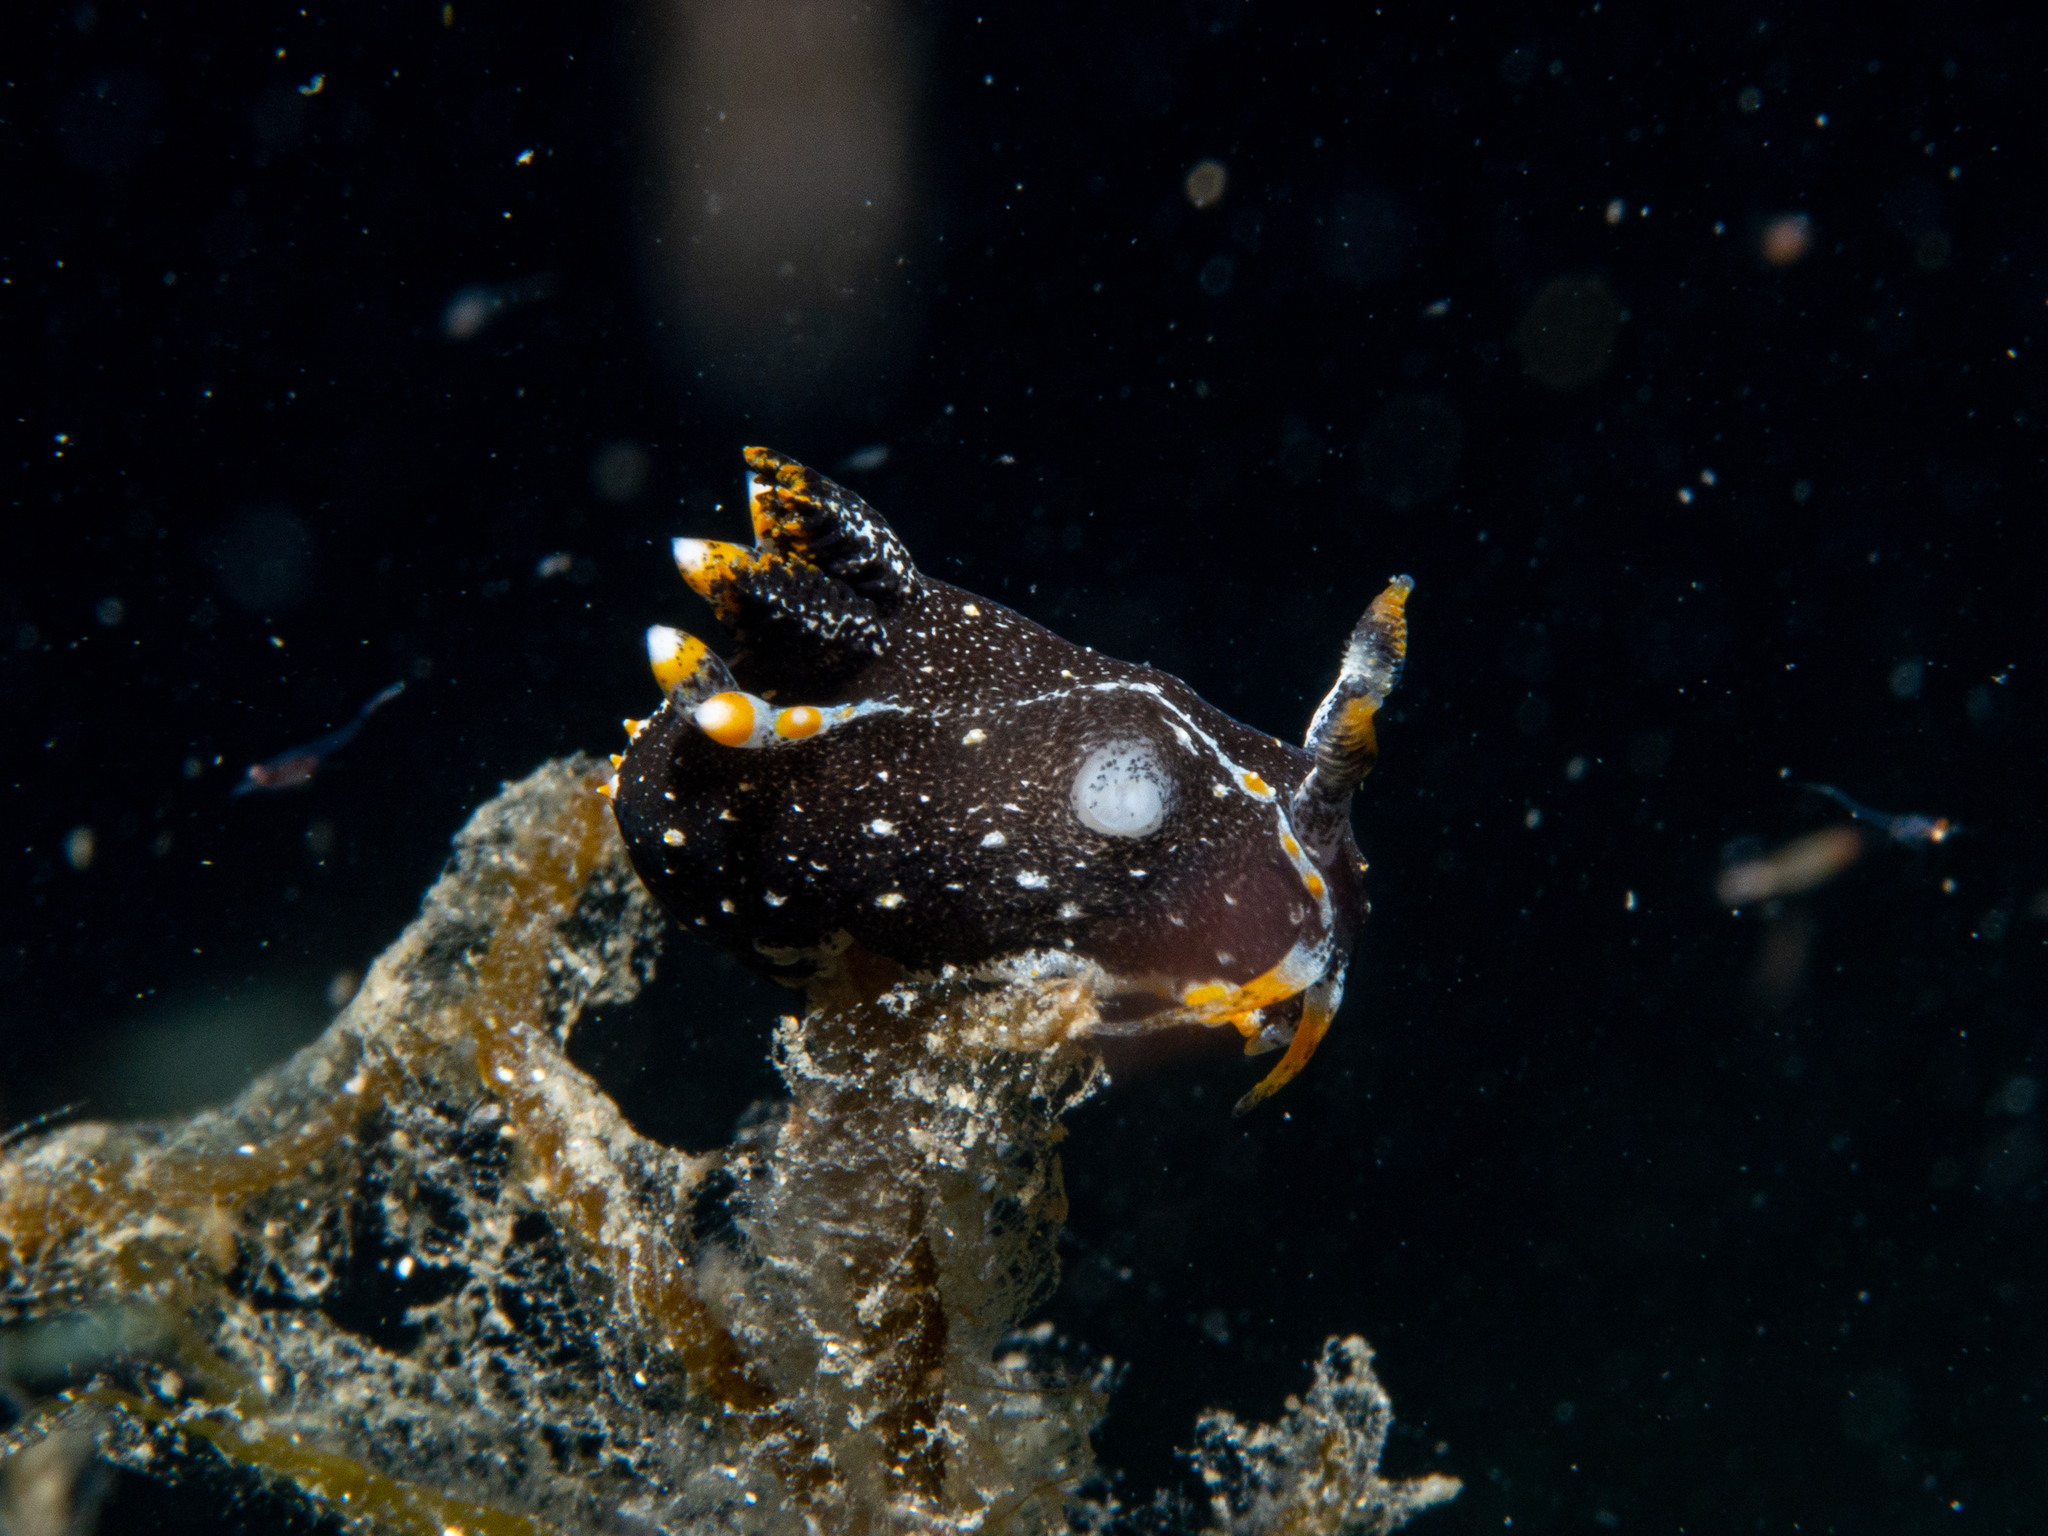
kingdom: Animalia
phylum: Mollusca
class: Gastropoda
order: Nudibranchia
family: Polyceridae
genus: Polycera
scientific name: Polycera hedgpethi
